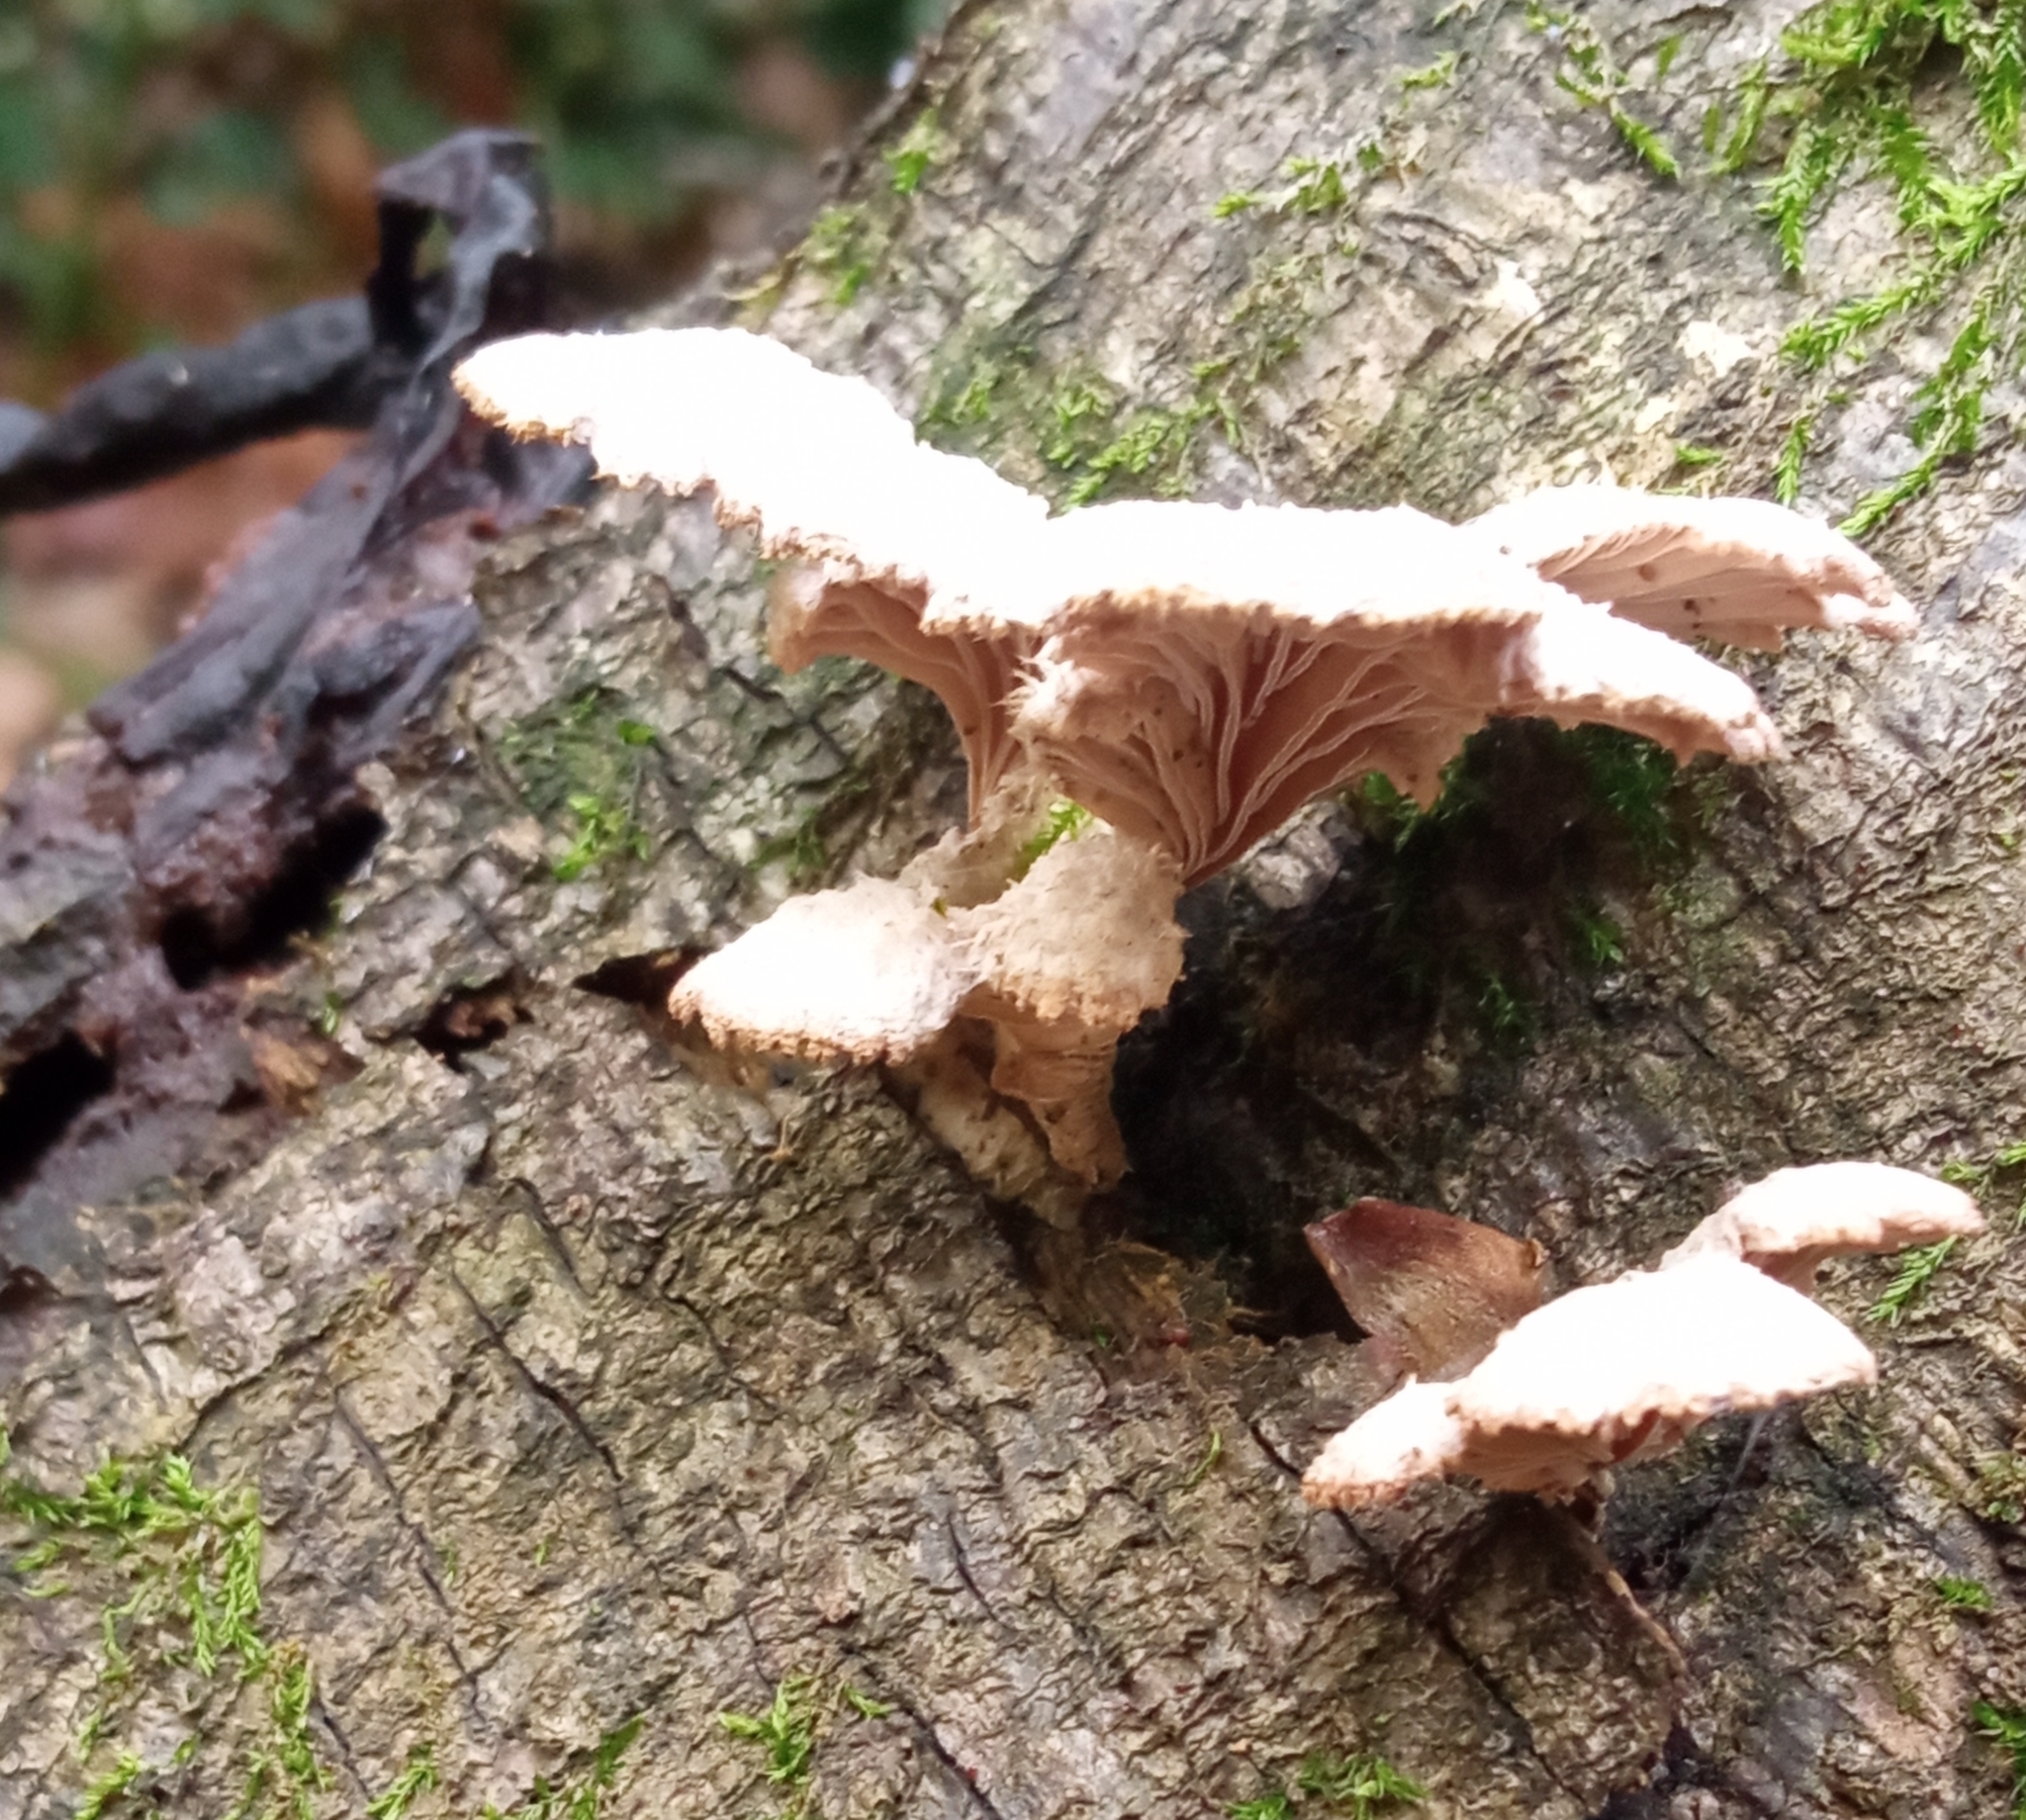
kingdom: Fungi
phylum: Basidiomycota
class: Agaricomycetes
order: Agaricales
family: Schizophyllaceae
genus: Schizophyllum
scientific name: Schizophyllum commune
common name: Common porecrust
